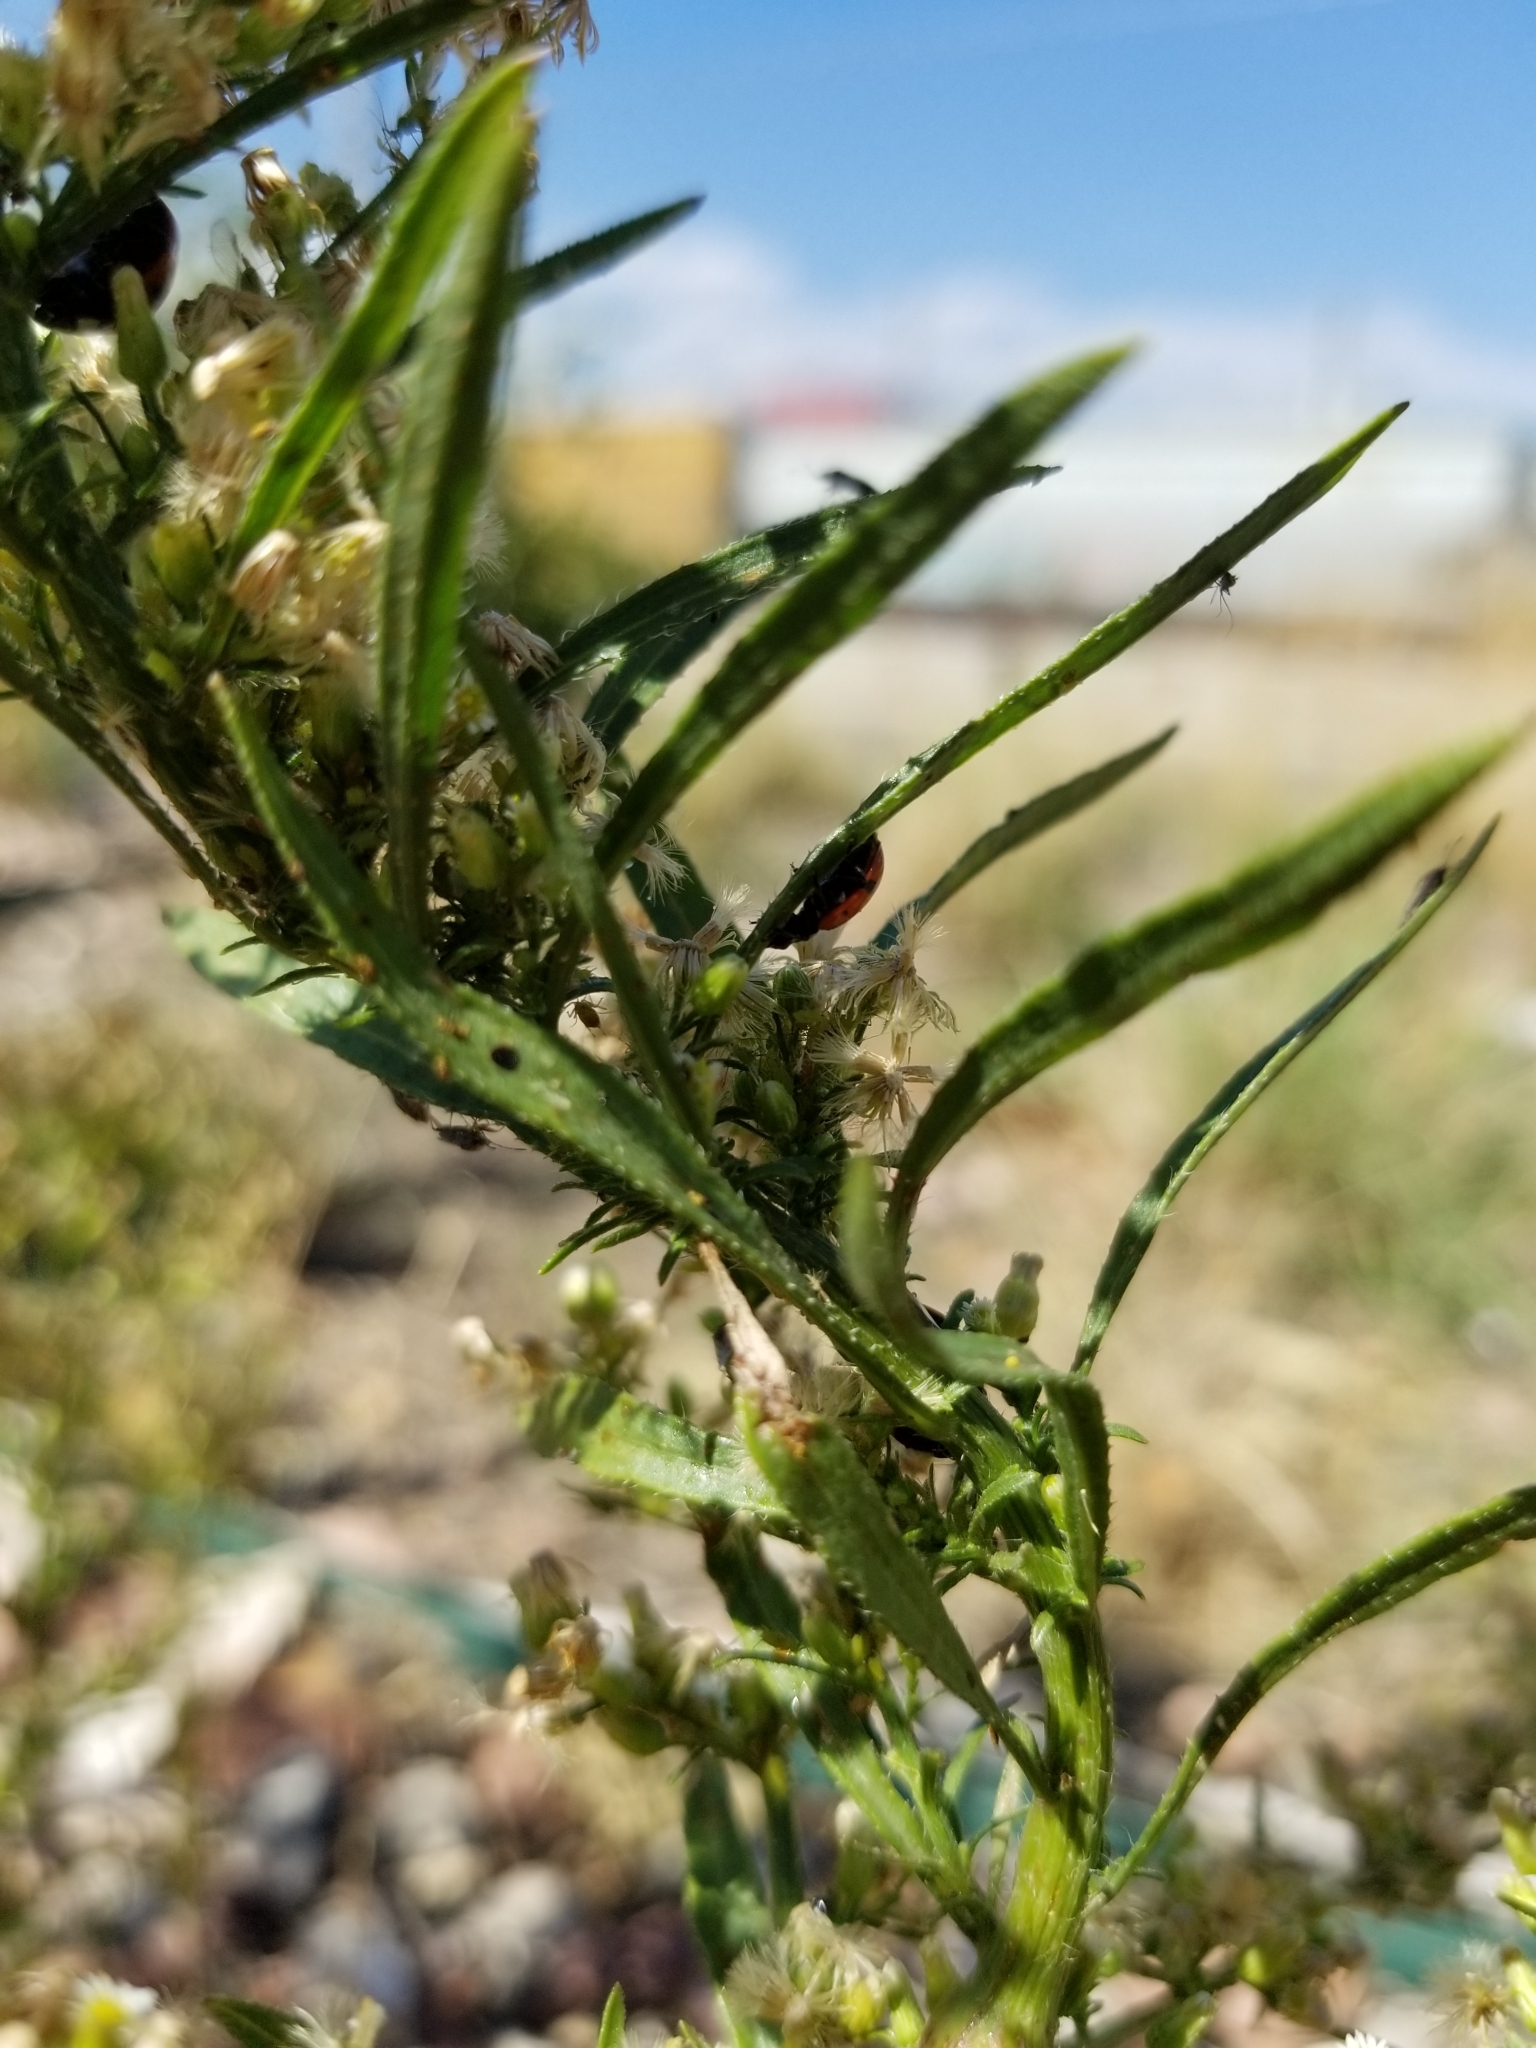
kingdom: Animalia
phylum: Arthropoda
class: Insecta
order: Coleoptera
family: Coccinellidae
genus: Hippodamia
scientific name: Hippodamia convergens
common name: Convergent lady beetle
